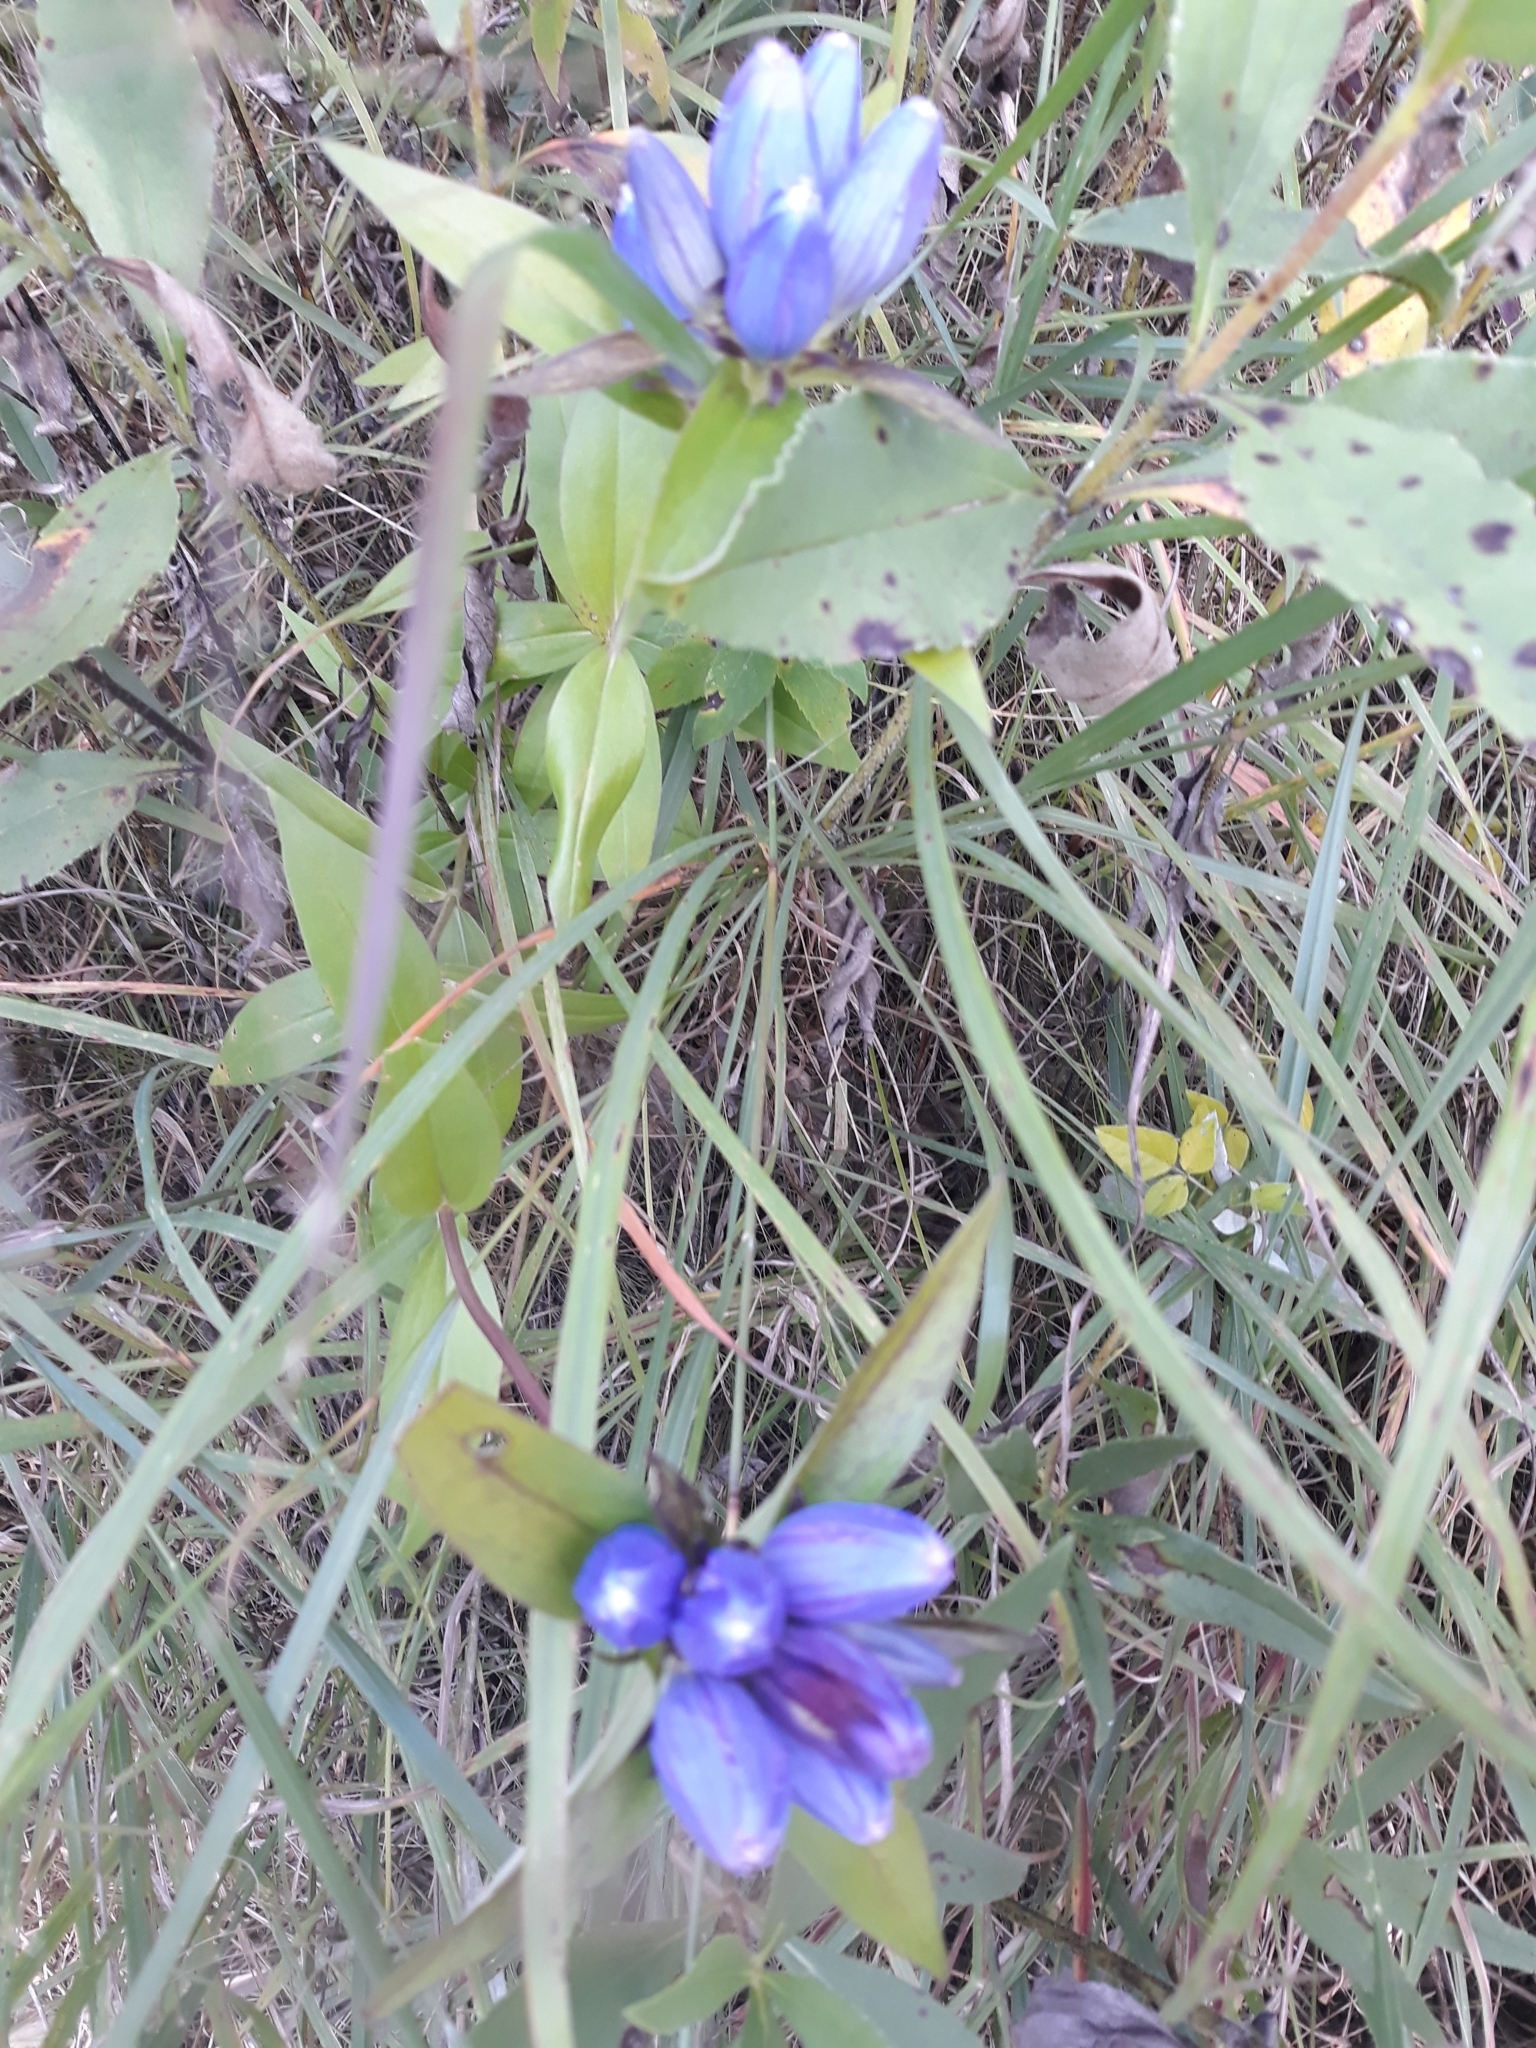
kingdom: Plantae
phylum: Tracheophyta
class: Magnoliopsida
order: Gentianales
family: Gentianaceae
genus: Gentiana
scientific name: Gentiana andrewsii
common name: Bottle gentian
